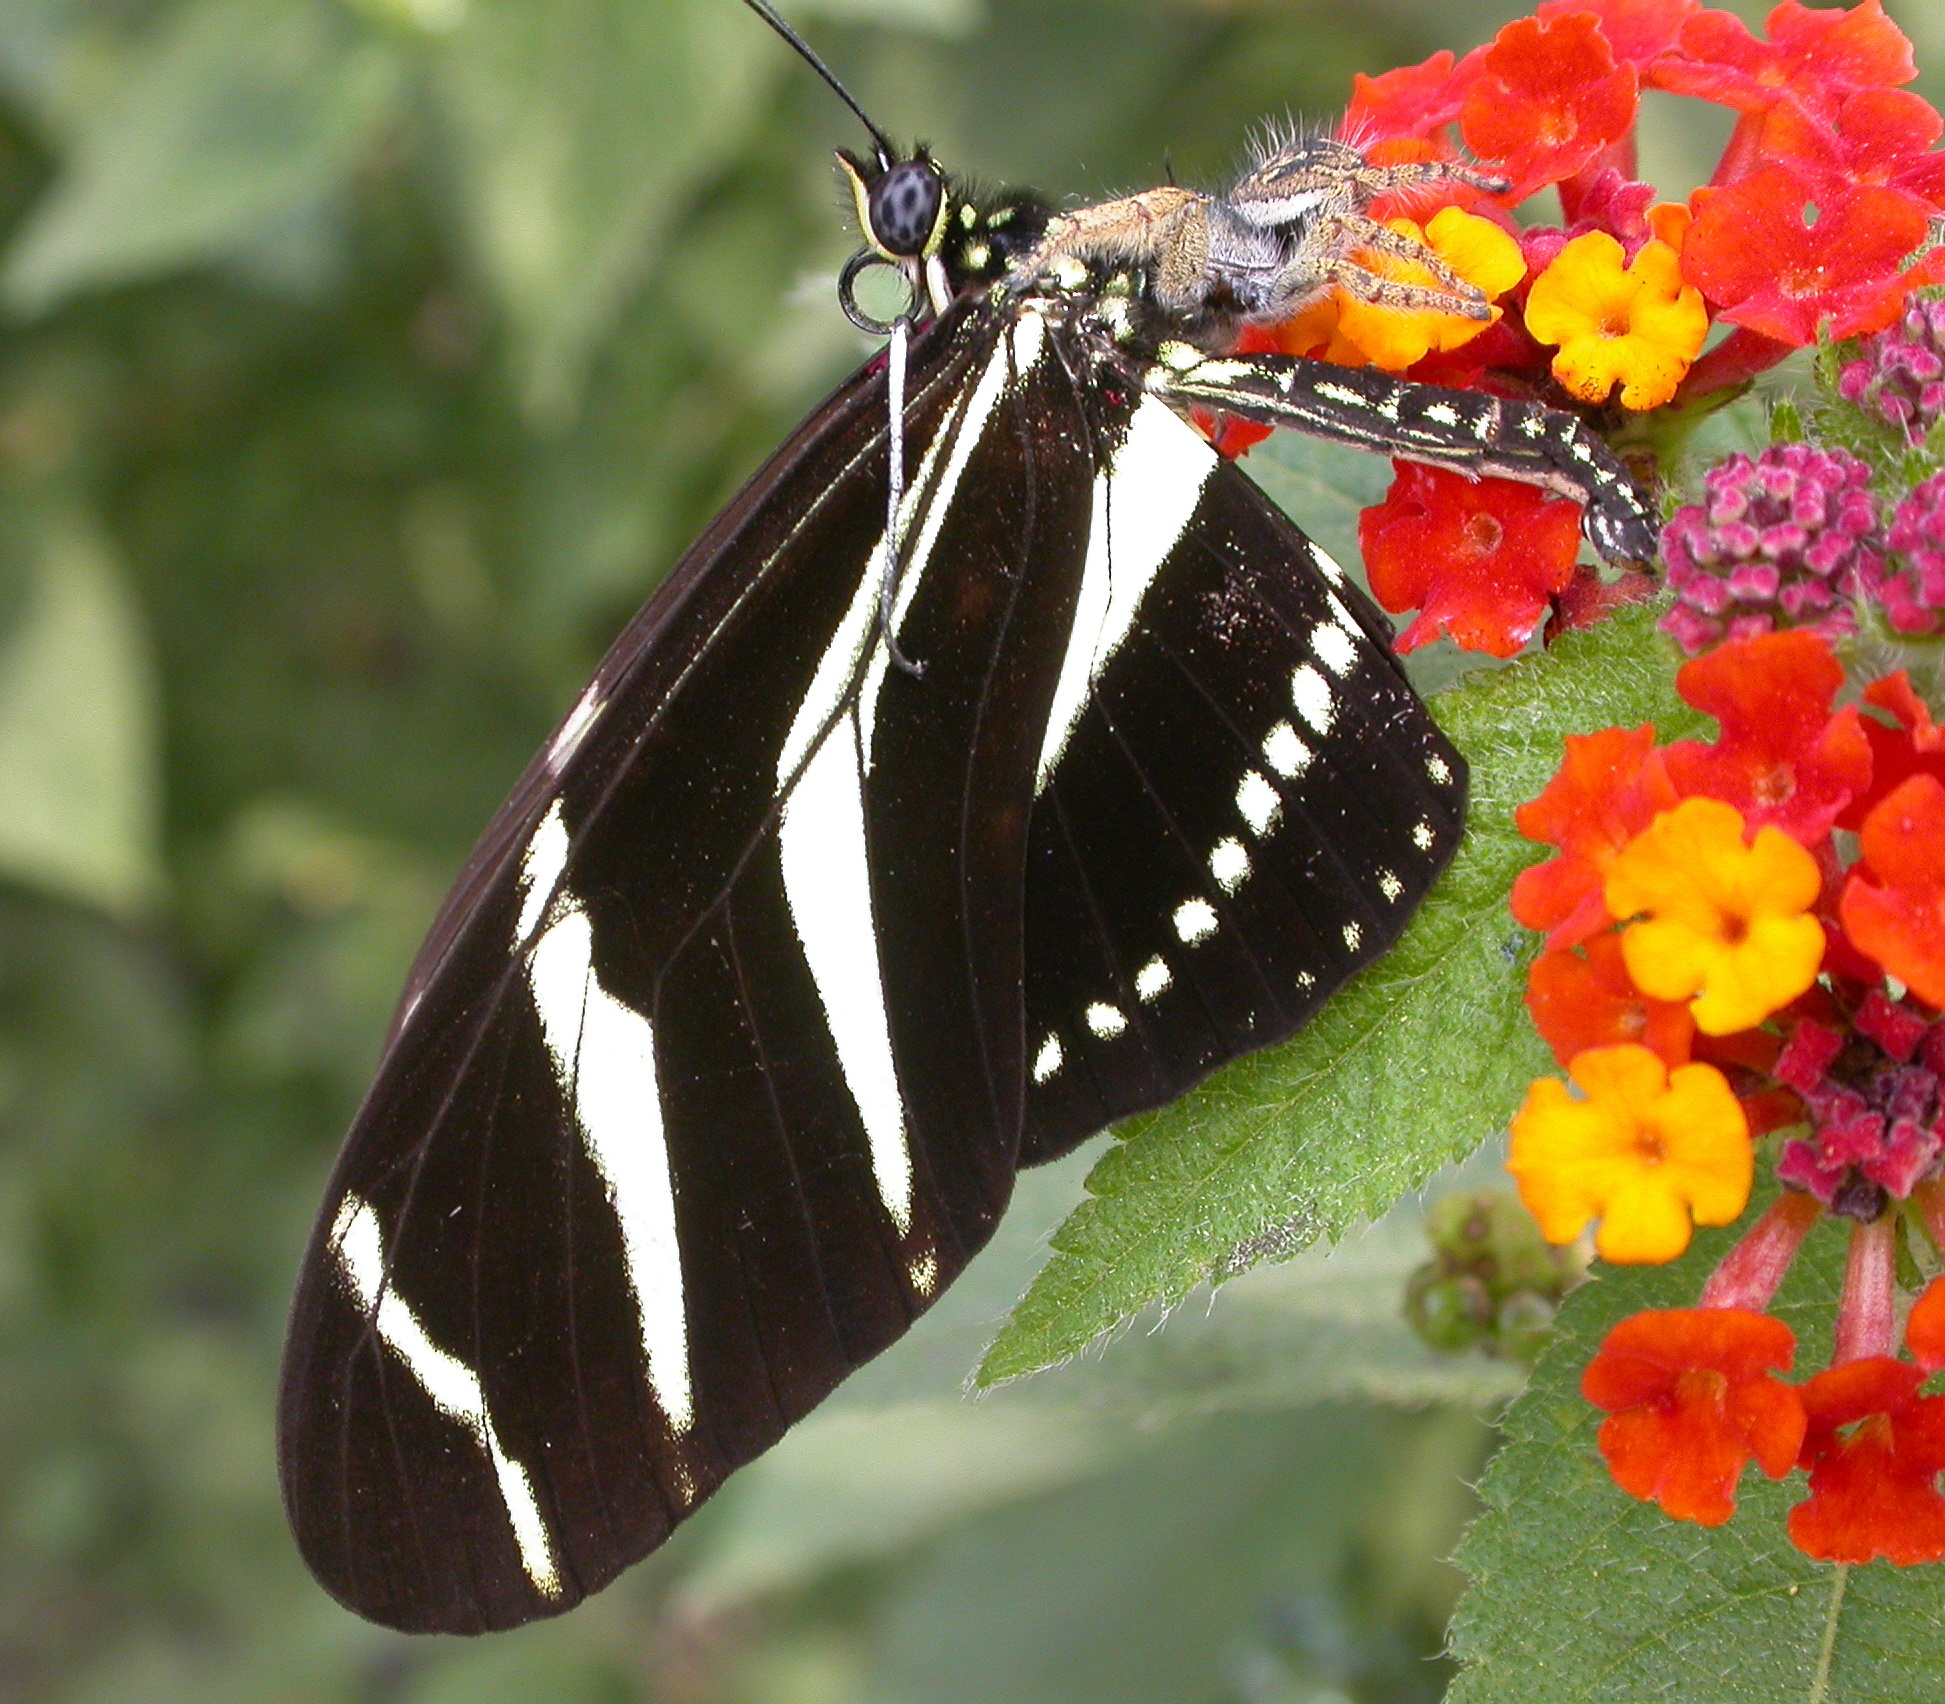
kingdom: Animalia
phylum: Arthropoda
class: Insecta
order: Lepidoptera
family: Nymphalidae
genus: Heliconius
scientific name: Heliconius charithonia
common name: Zebra long wing
